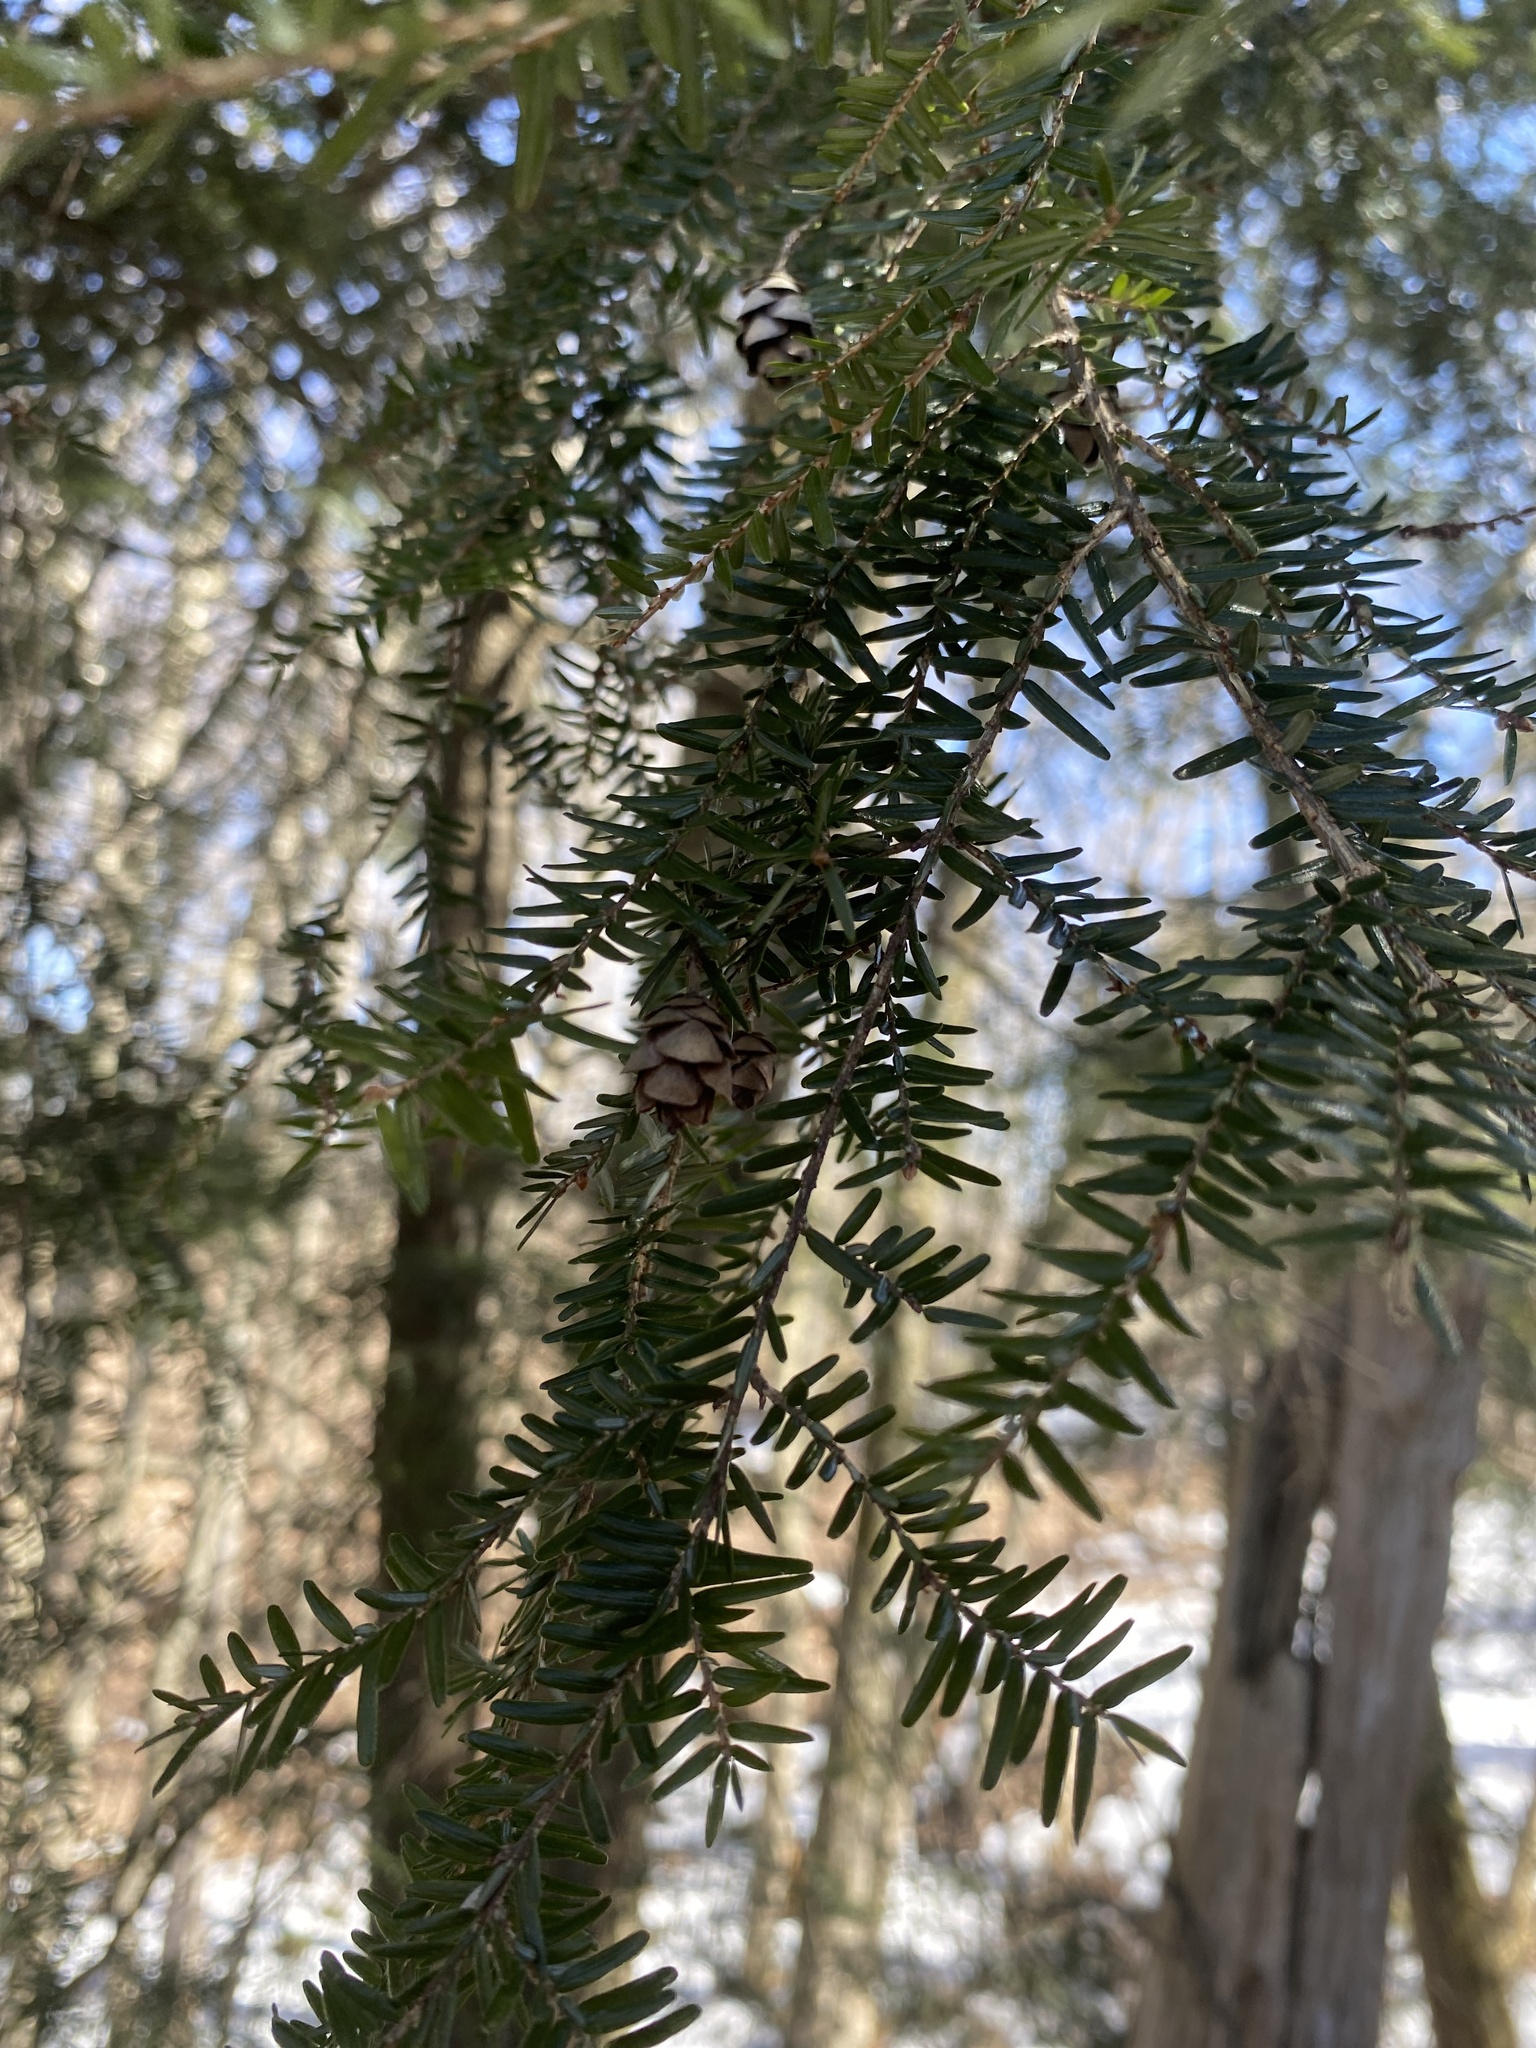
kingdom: Plantae
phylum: Tracheophyta
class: Pinopsida
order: Pinales
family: Pinaceae
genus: Tsuga
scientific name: Tsuga canadensis
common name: Eastern hemlock
